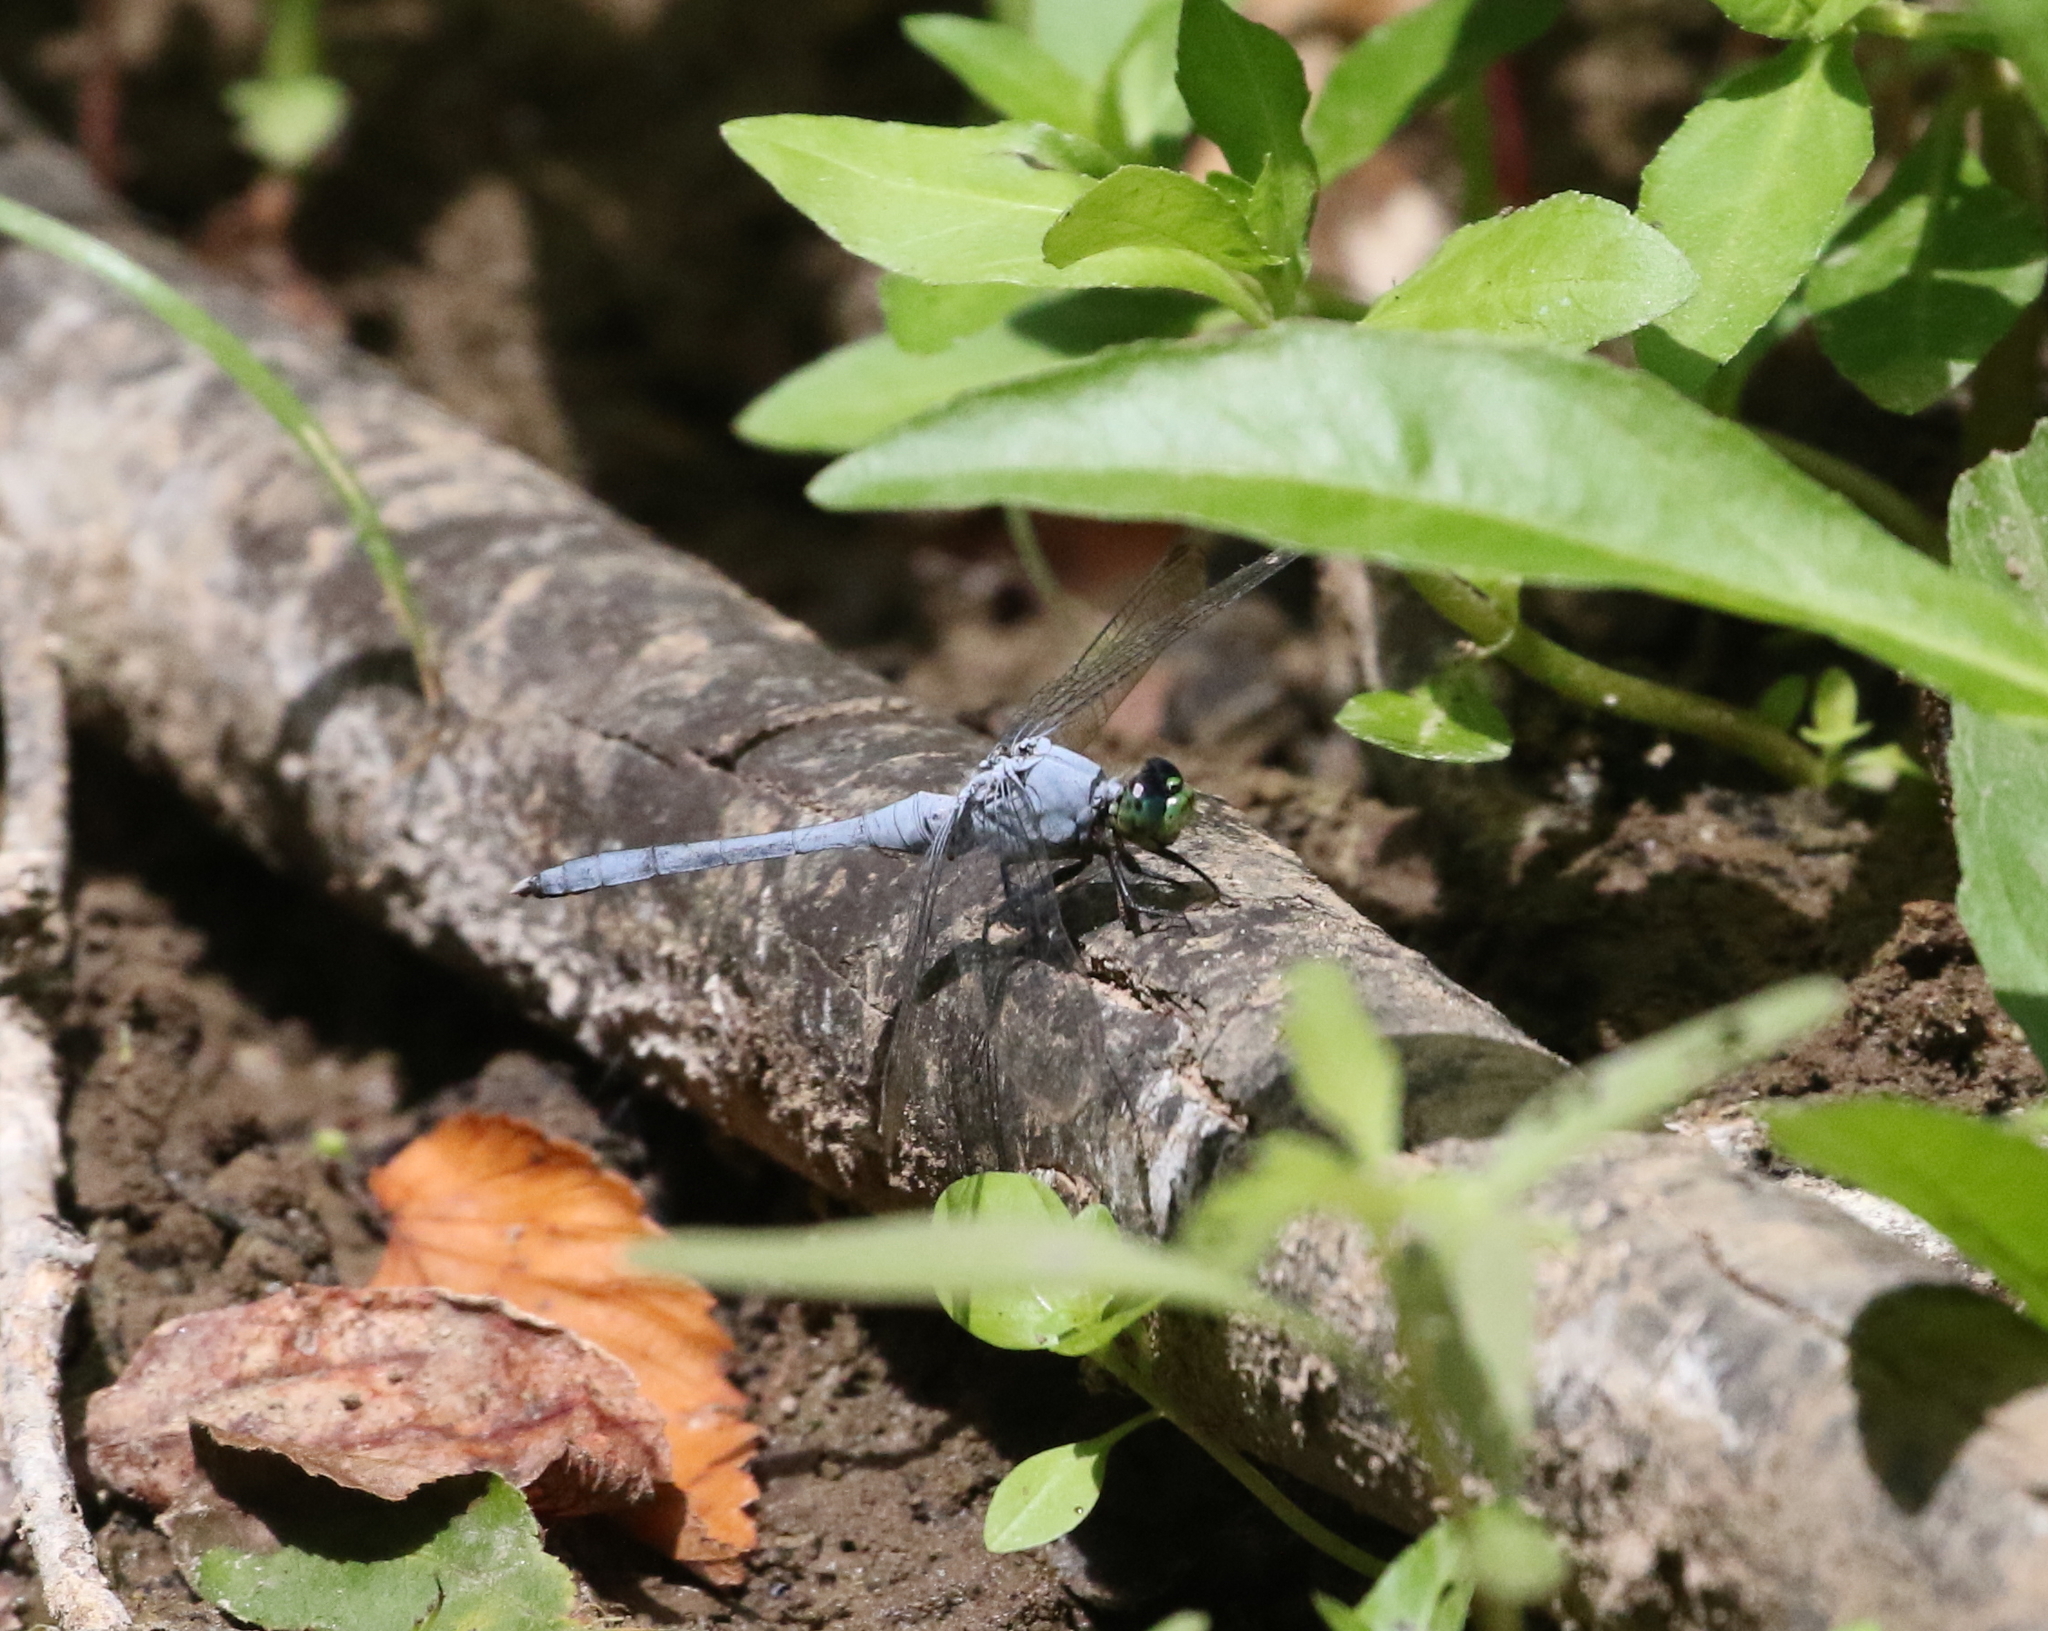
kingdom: Animalia
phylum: Arthropoda
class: Insecta
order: Odonata
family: Libellulidae
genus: Erythemis
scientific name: Erythemis simplicicollis
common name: Eastern pondhawk
